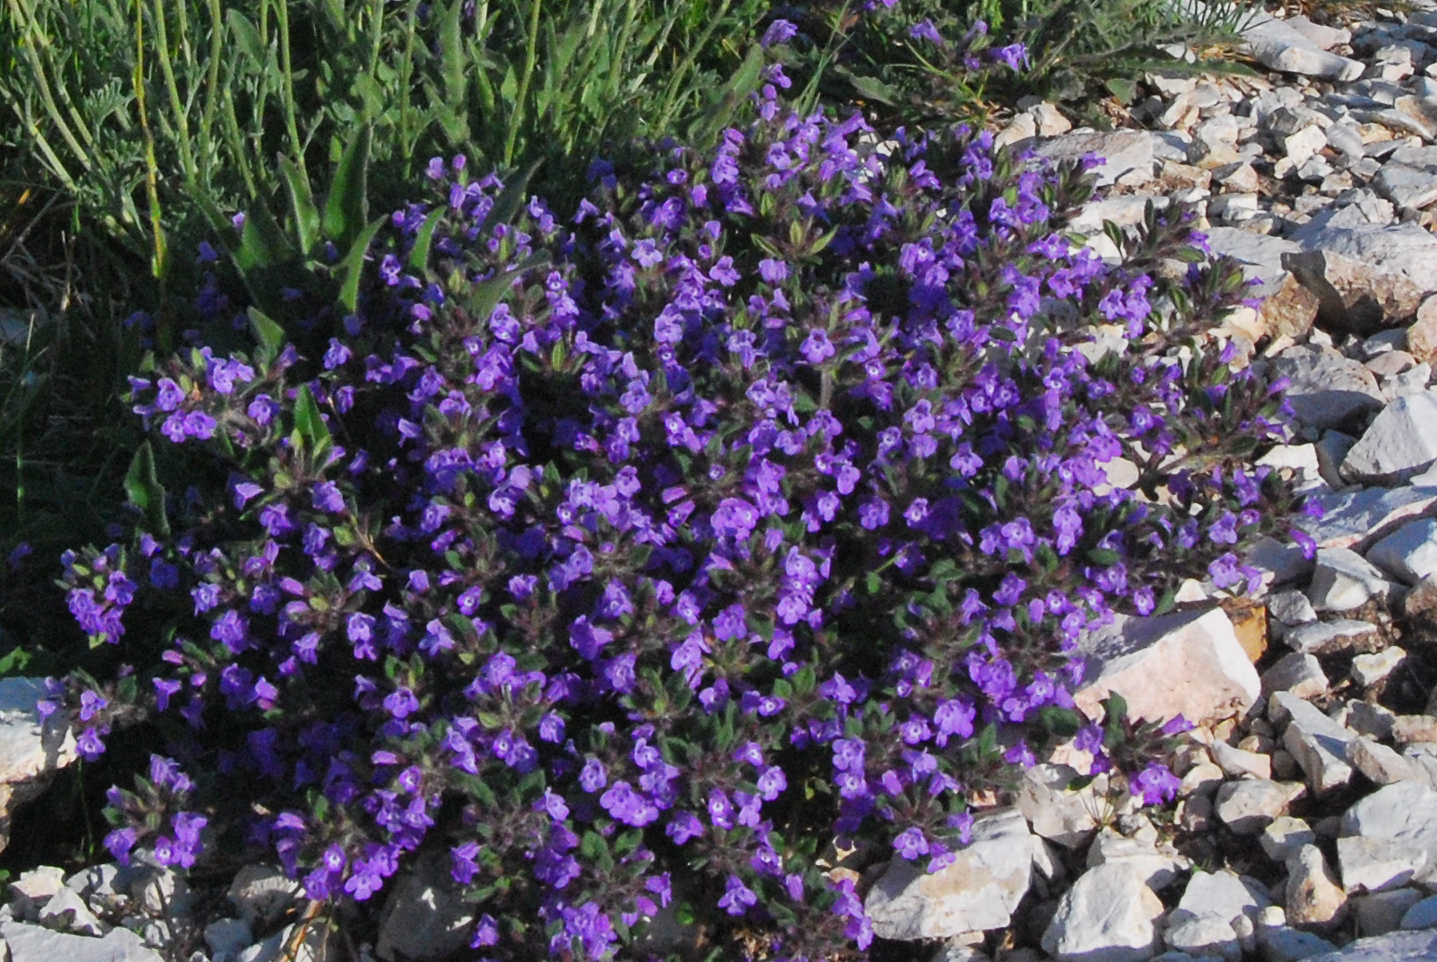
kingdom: Plantae
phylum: Tracheophyta
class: Magnoliopsida
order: Lamiales
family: Lamiaceae
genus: Clinopodium
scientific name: Clinopodium alpinum
